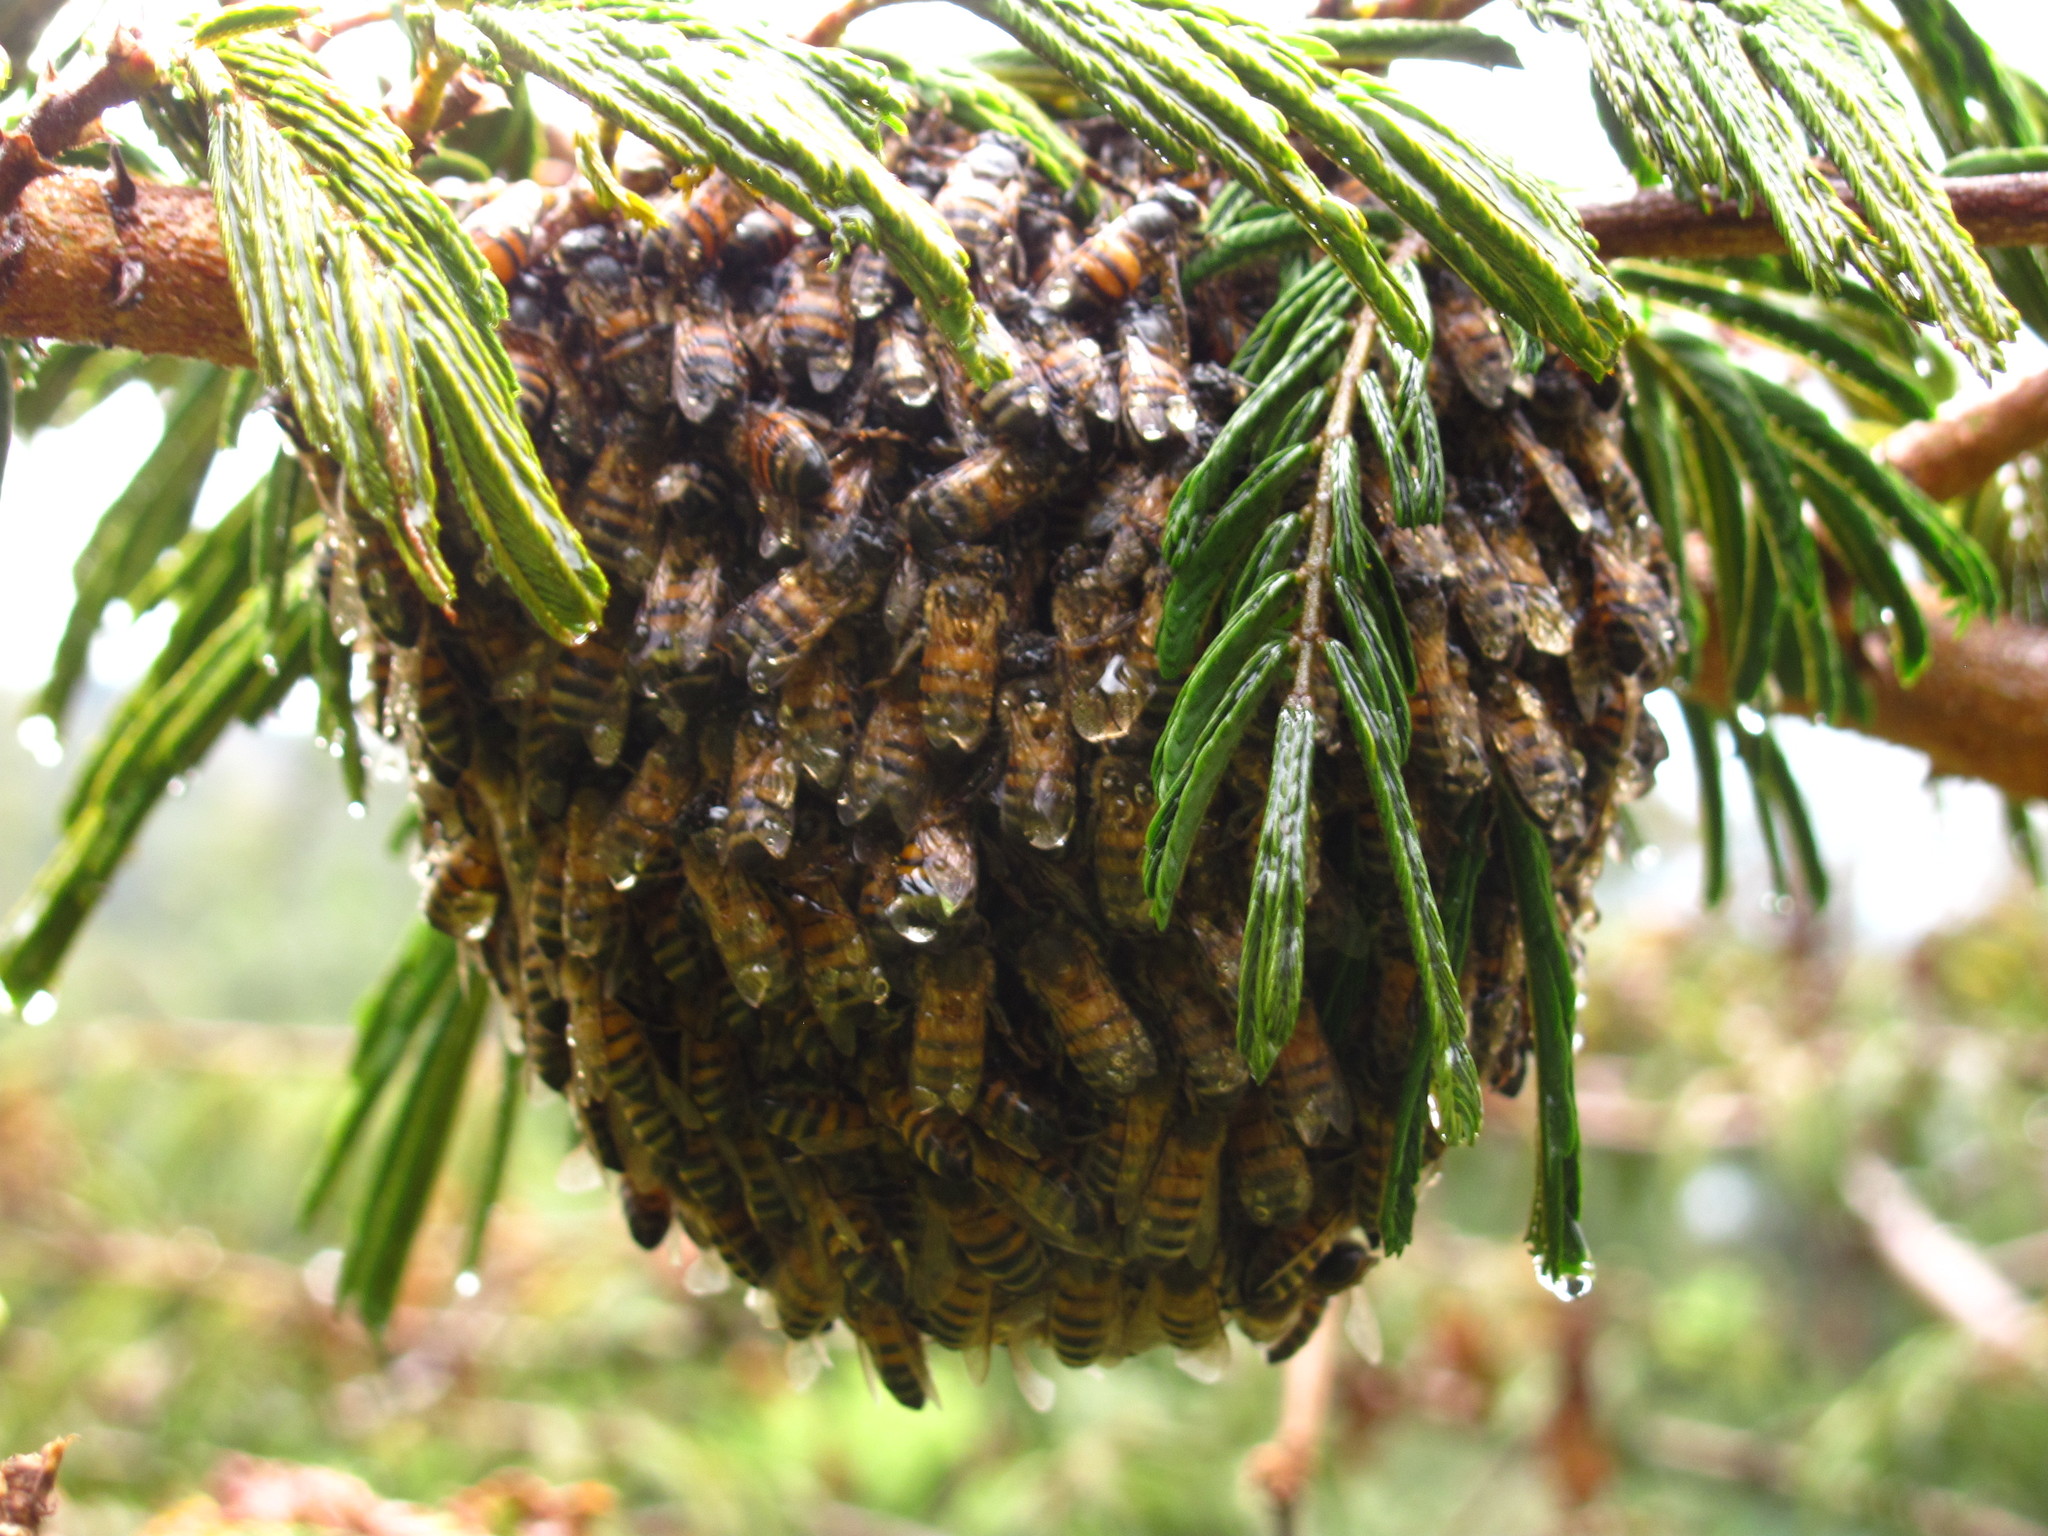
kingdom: Animalia
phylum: Arthropoda
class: Insecta
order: Hymenoptera
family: Apidae
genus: Apis
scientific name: Apis mellifera
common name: Honey bee
